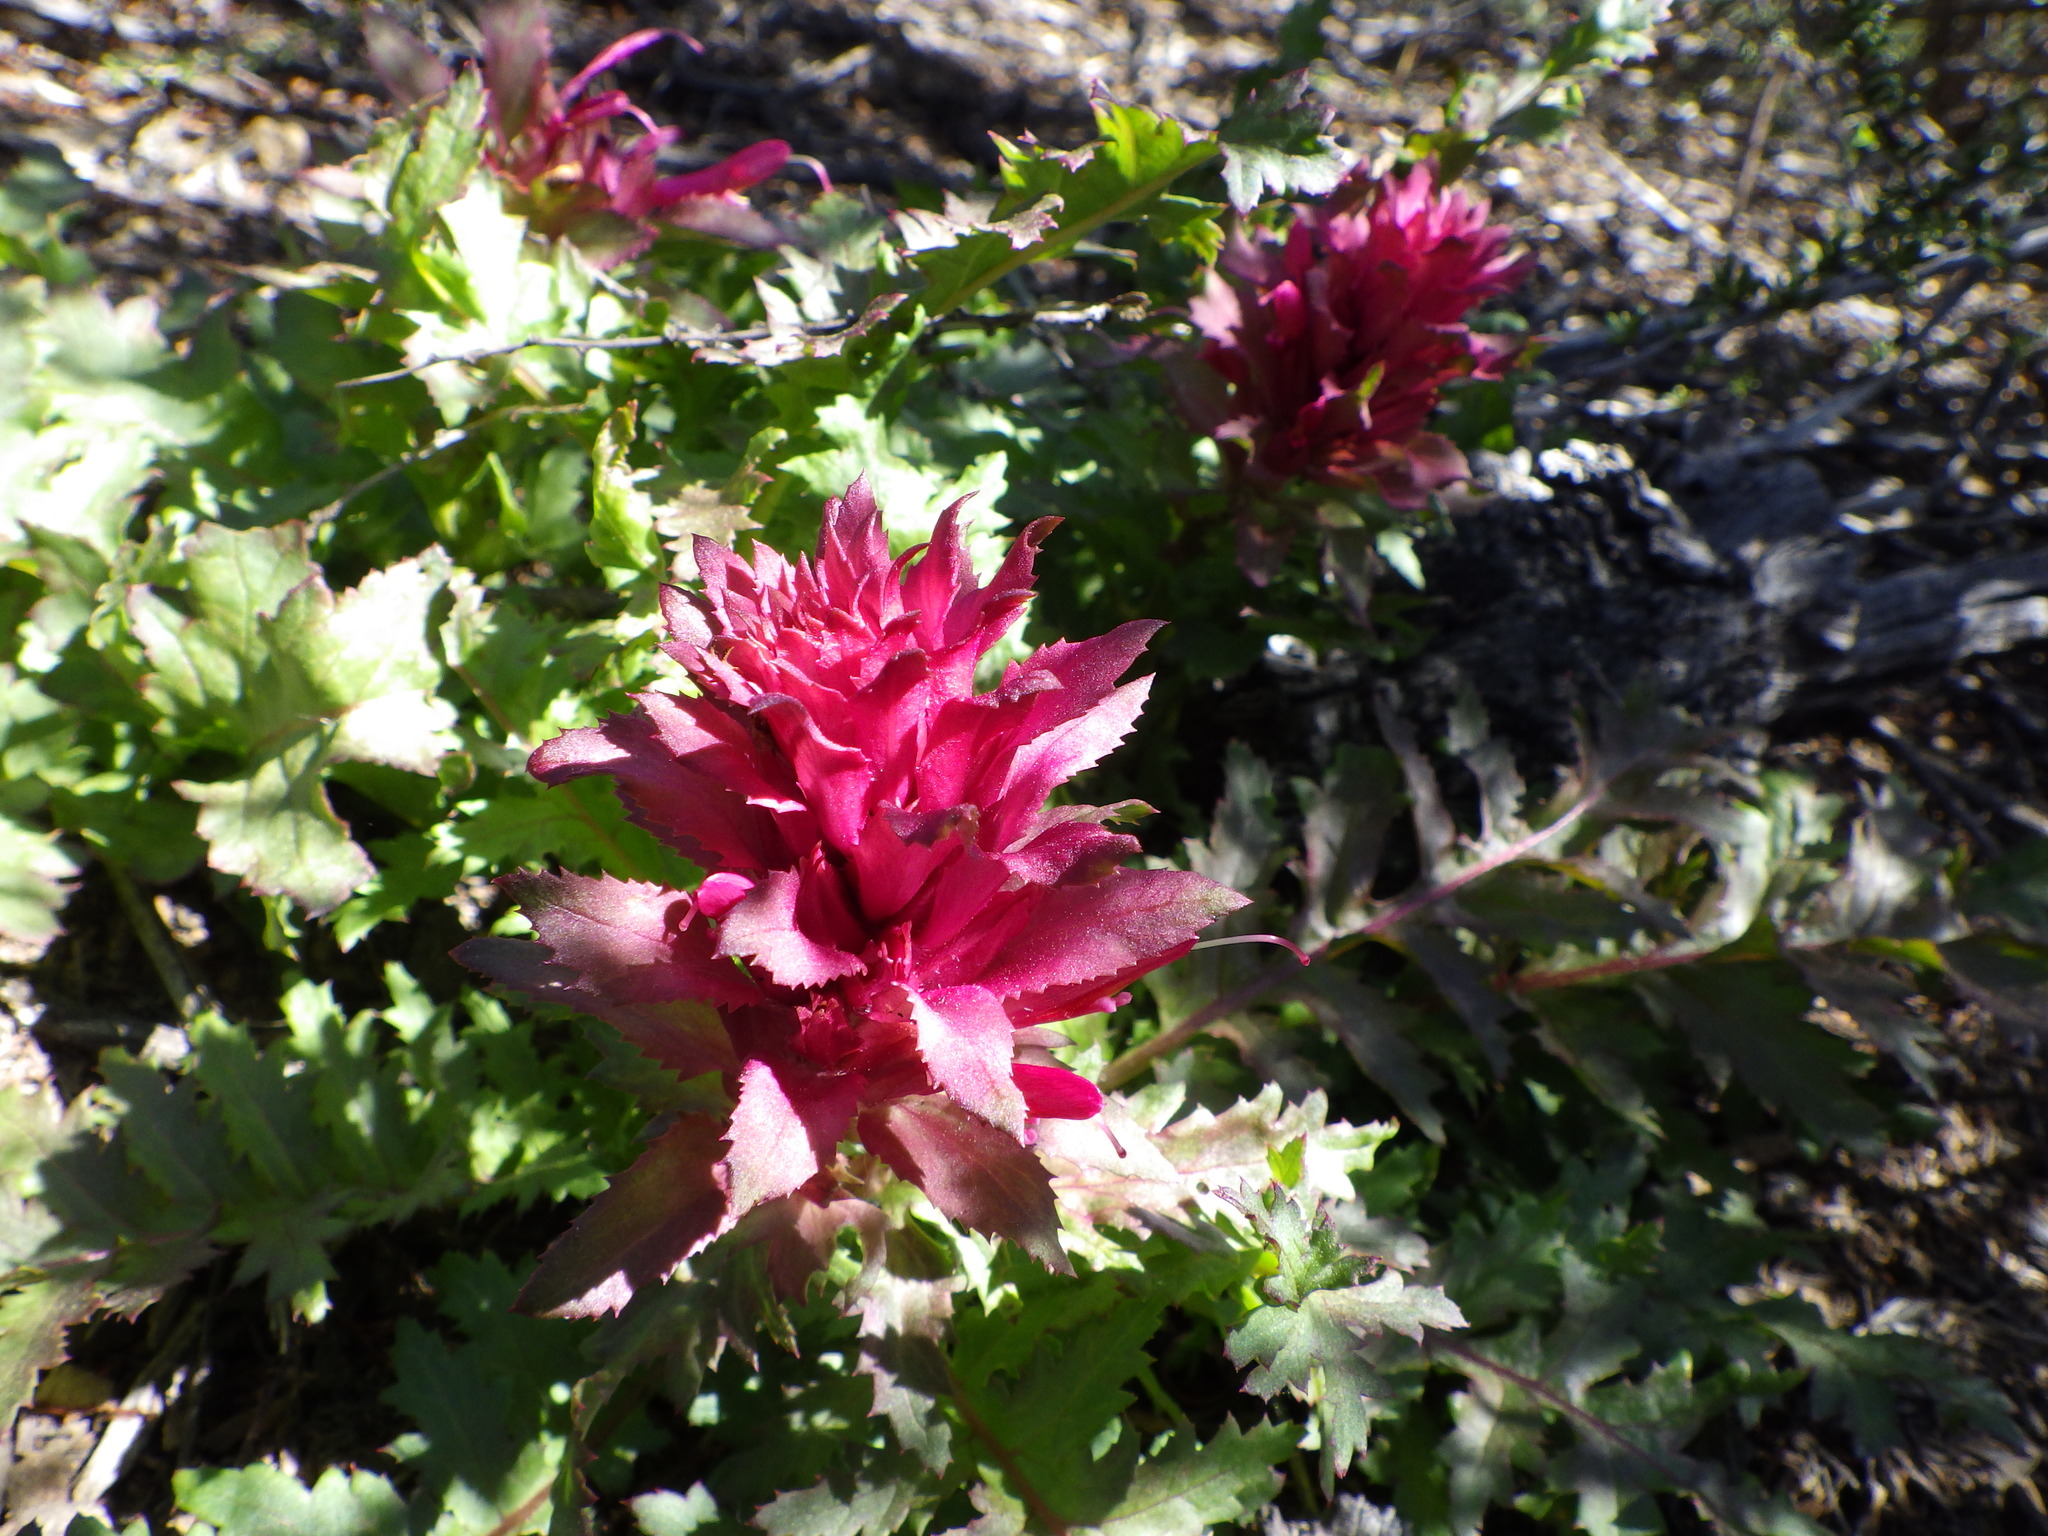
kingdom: Plantae
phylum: Tracheophyta
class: Magnoliopsida
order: Lamiales
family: Orobanchaceae
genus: Pedicularis
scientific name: Pedicularis densiflora
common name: Indian warrior
